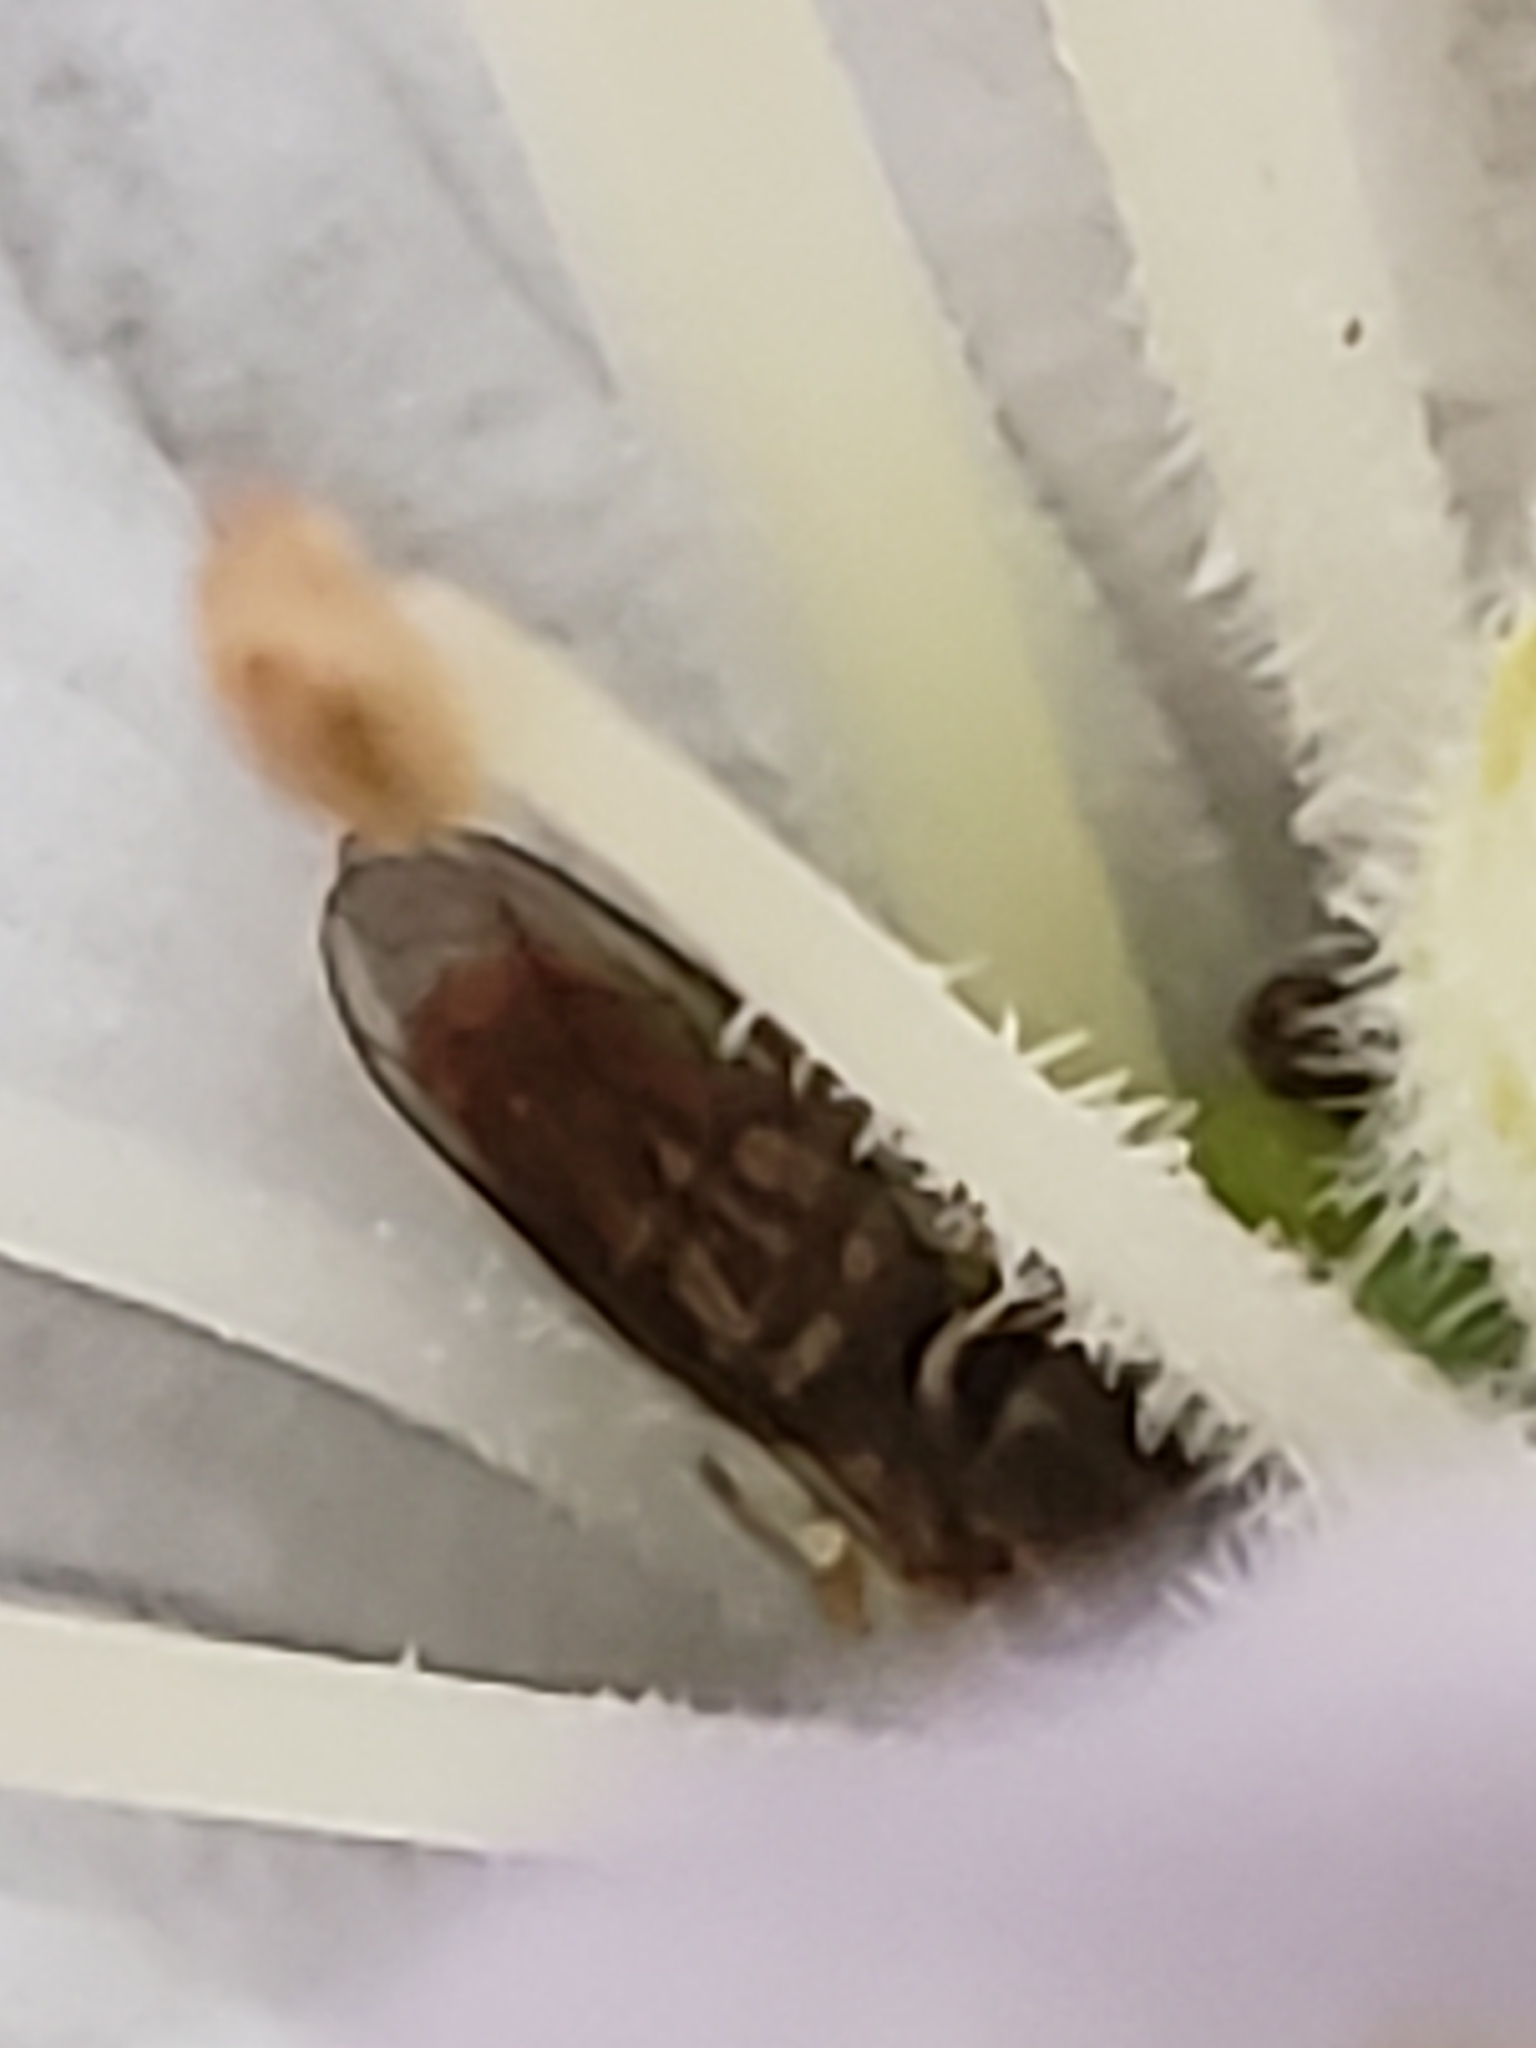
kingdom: Animalia
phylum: Arthropoda
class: Insecta
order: Diptera
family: Syrphidae
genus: Toxomerus
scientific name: Toxomerus marginatus
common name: Syrphid fly
